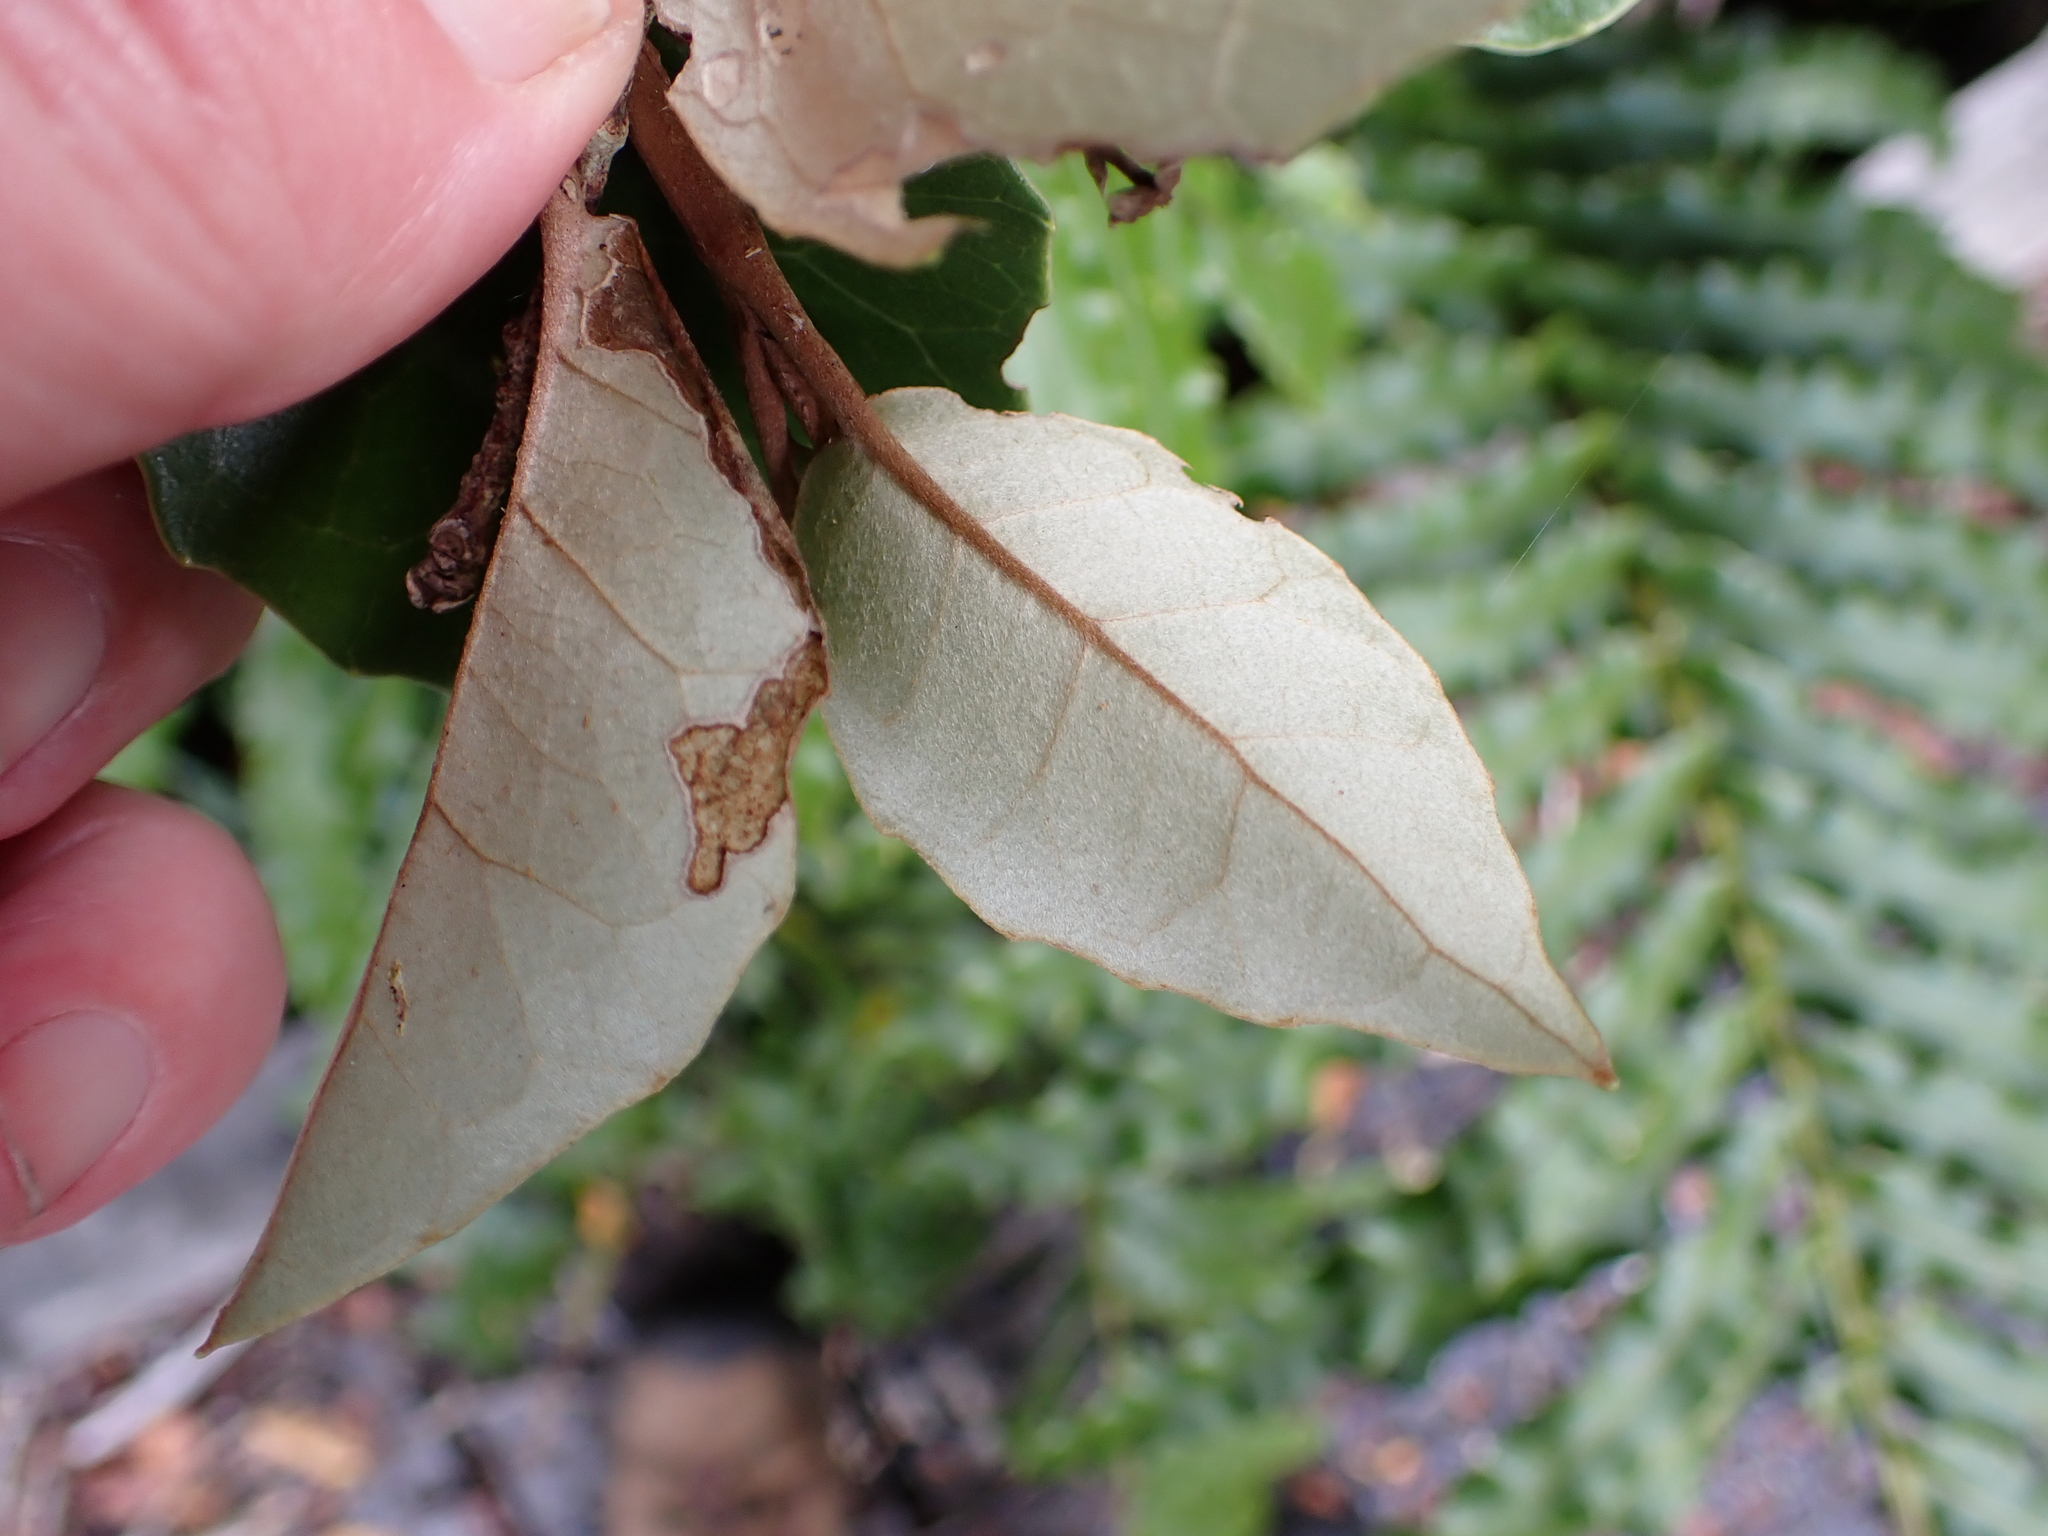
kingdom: Plantae
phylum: Tracheophyta
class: Magnoliopsida
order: Asterales
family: Asteraceae
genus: Olearia
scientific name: Olearia arborescens
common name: Glossy tree daisy
